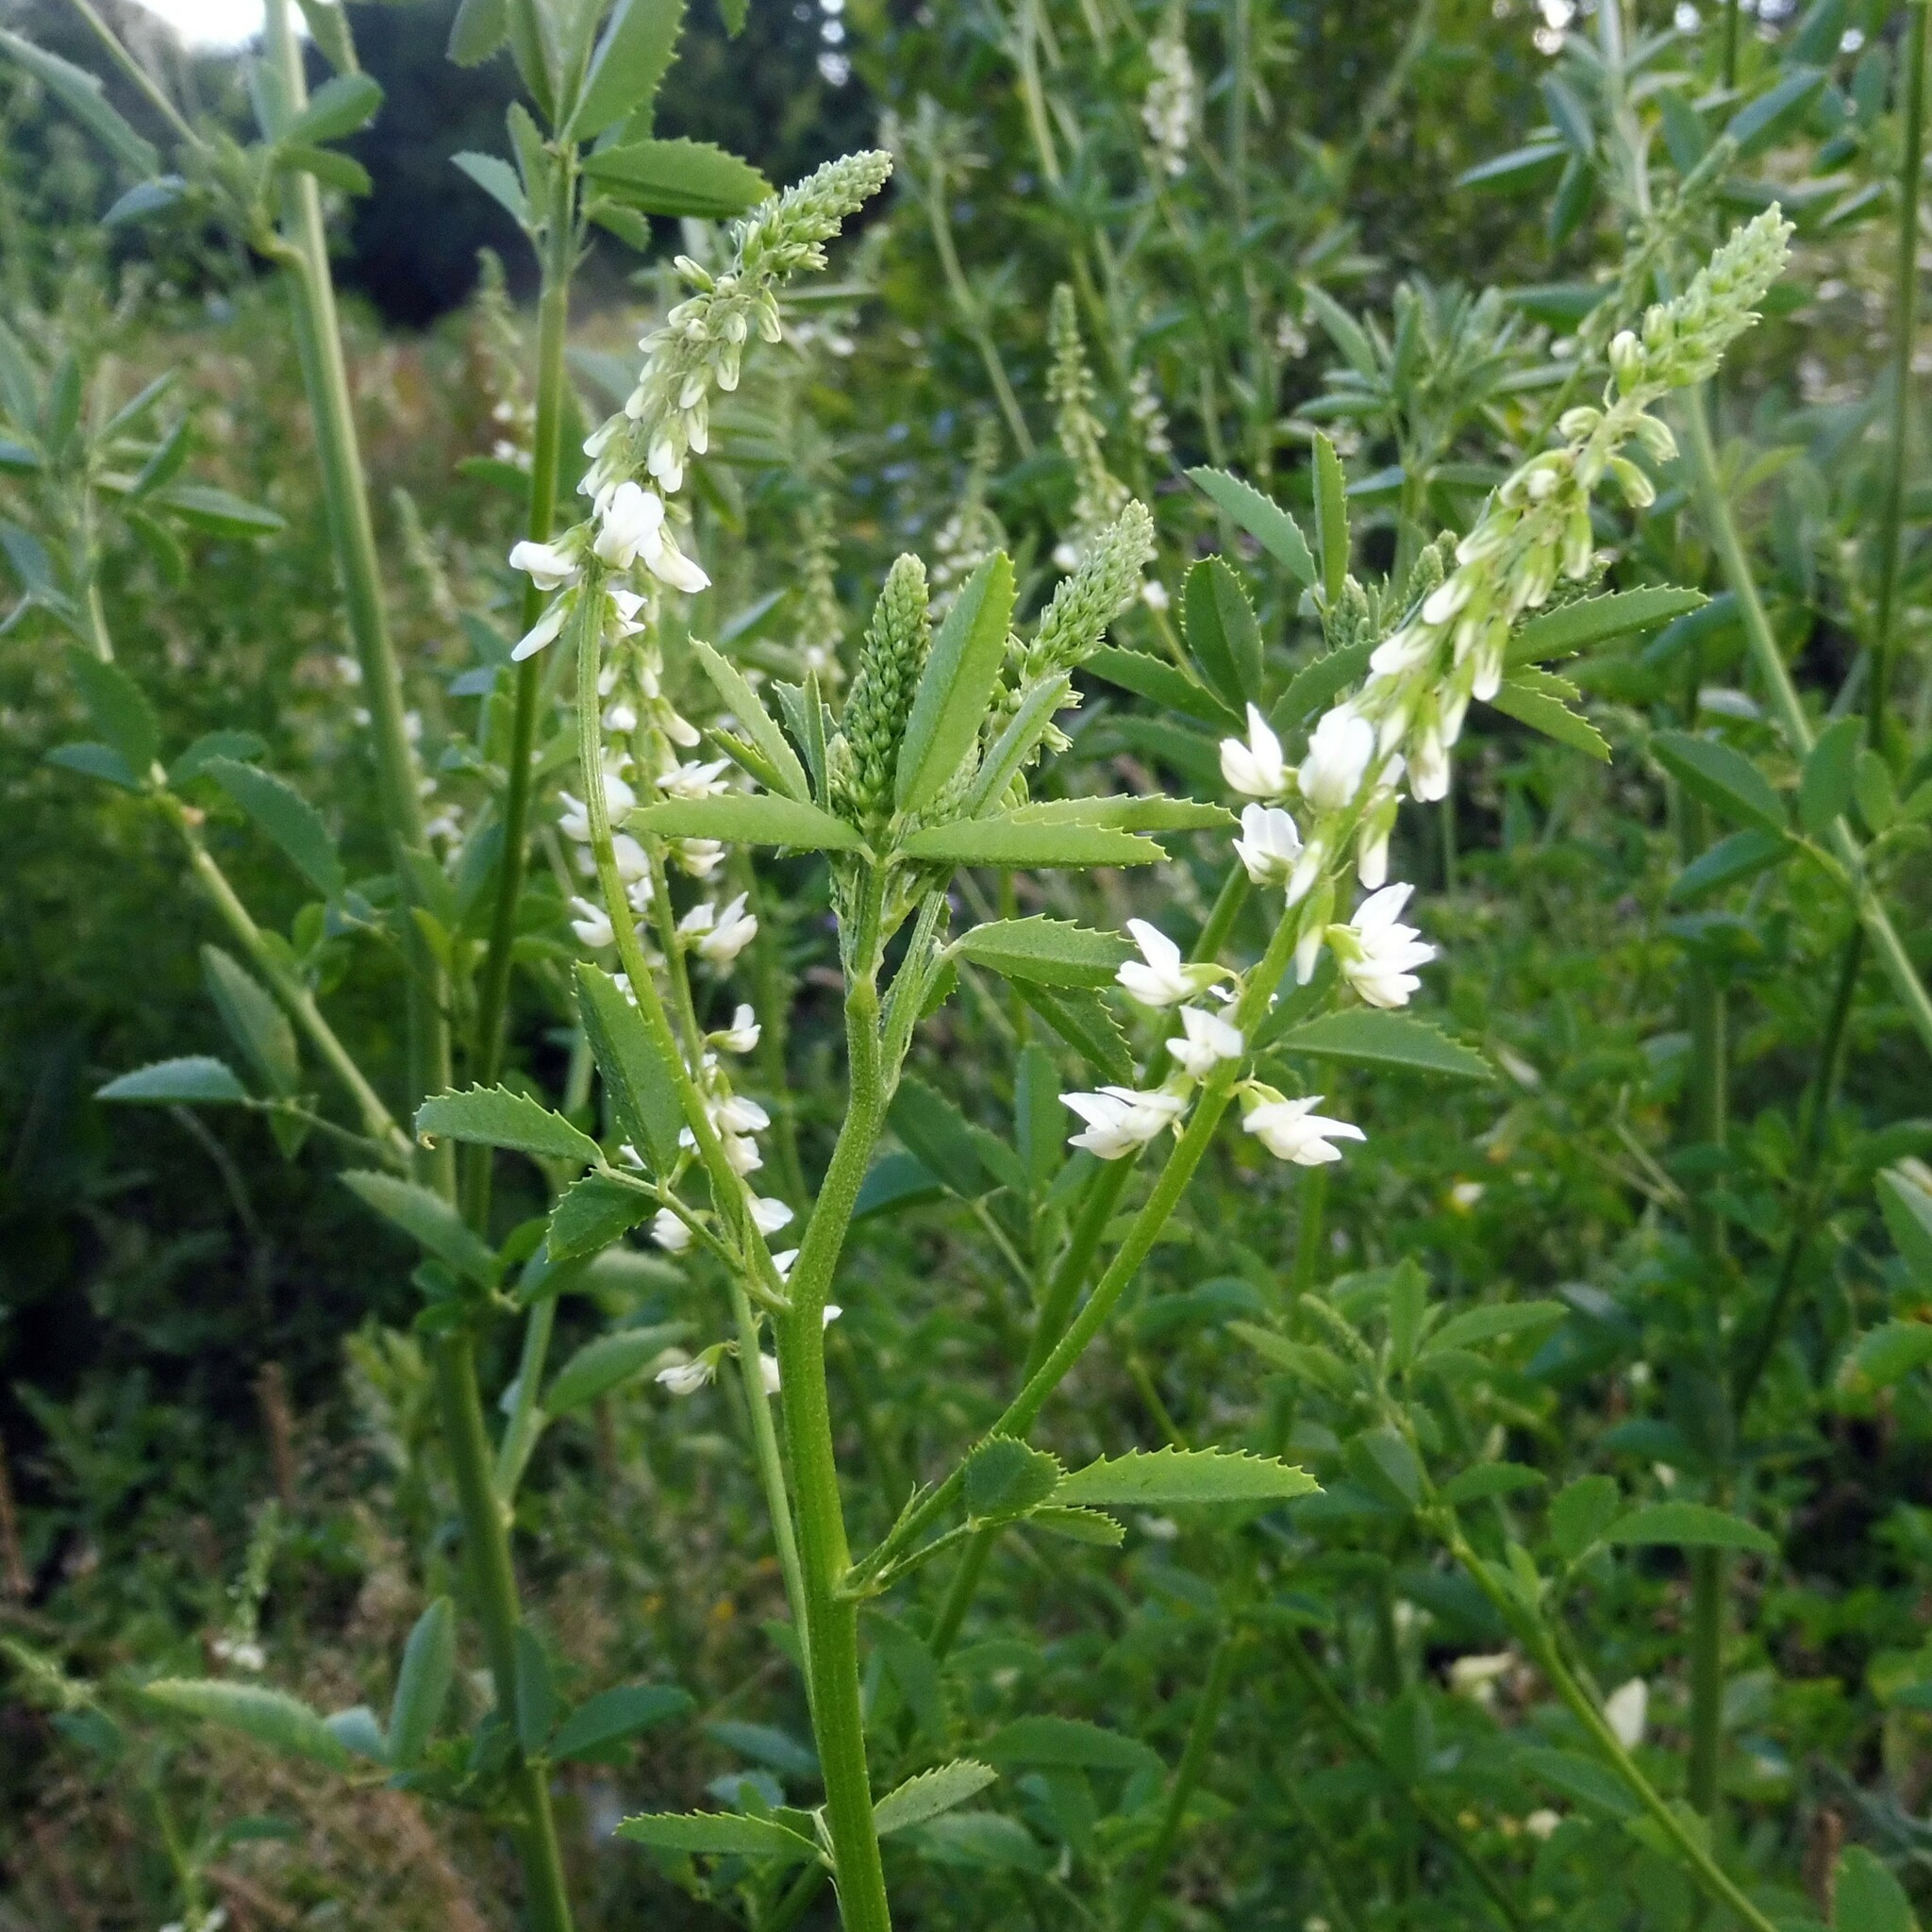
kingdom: Plantae
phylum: Tracheophyta
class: Magnoliopsida
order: Fabales
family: Fabaceae
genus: Melilotus
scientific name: Melilotus albus
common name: White melilot
